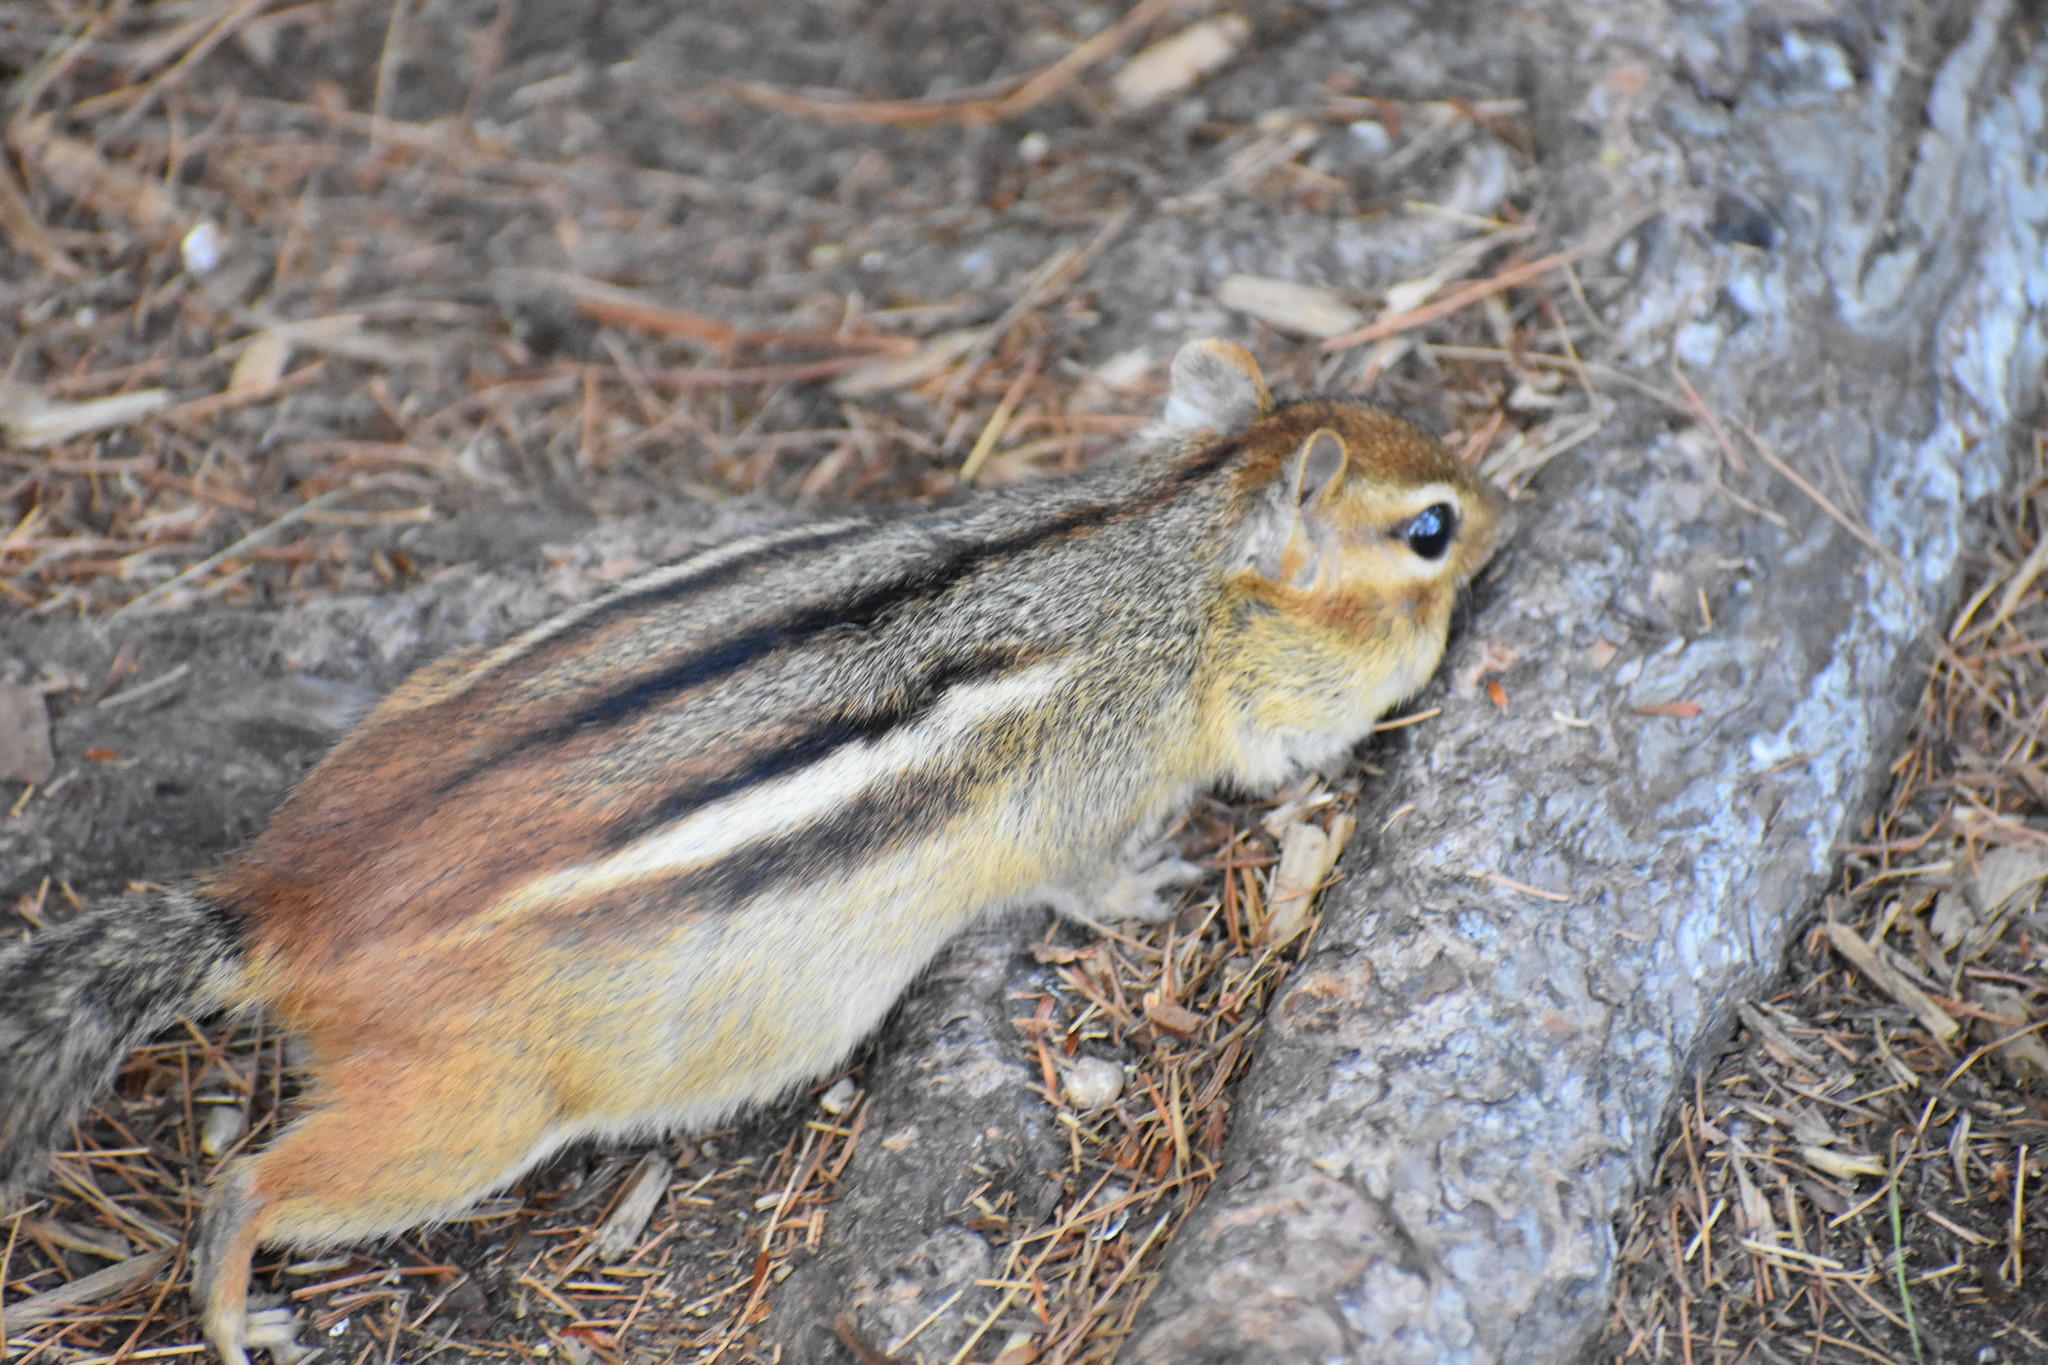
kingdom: Animalia
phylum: Chordata
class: Mammalia
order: Rodentia
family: Sciuridae
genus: Tamias
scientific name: Tamias striatus
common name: Eastern chipmunk
